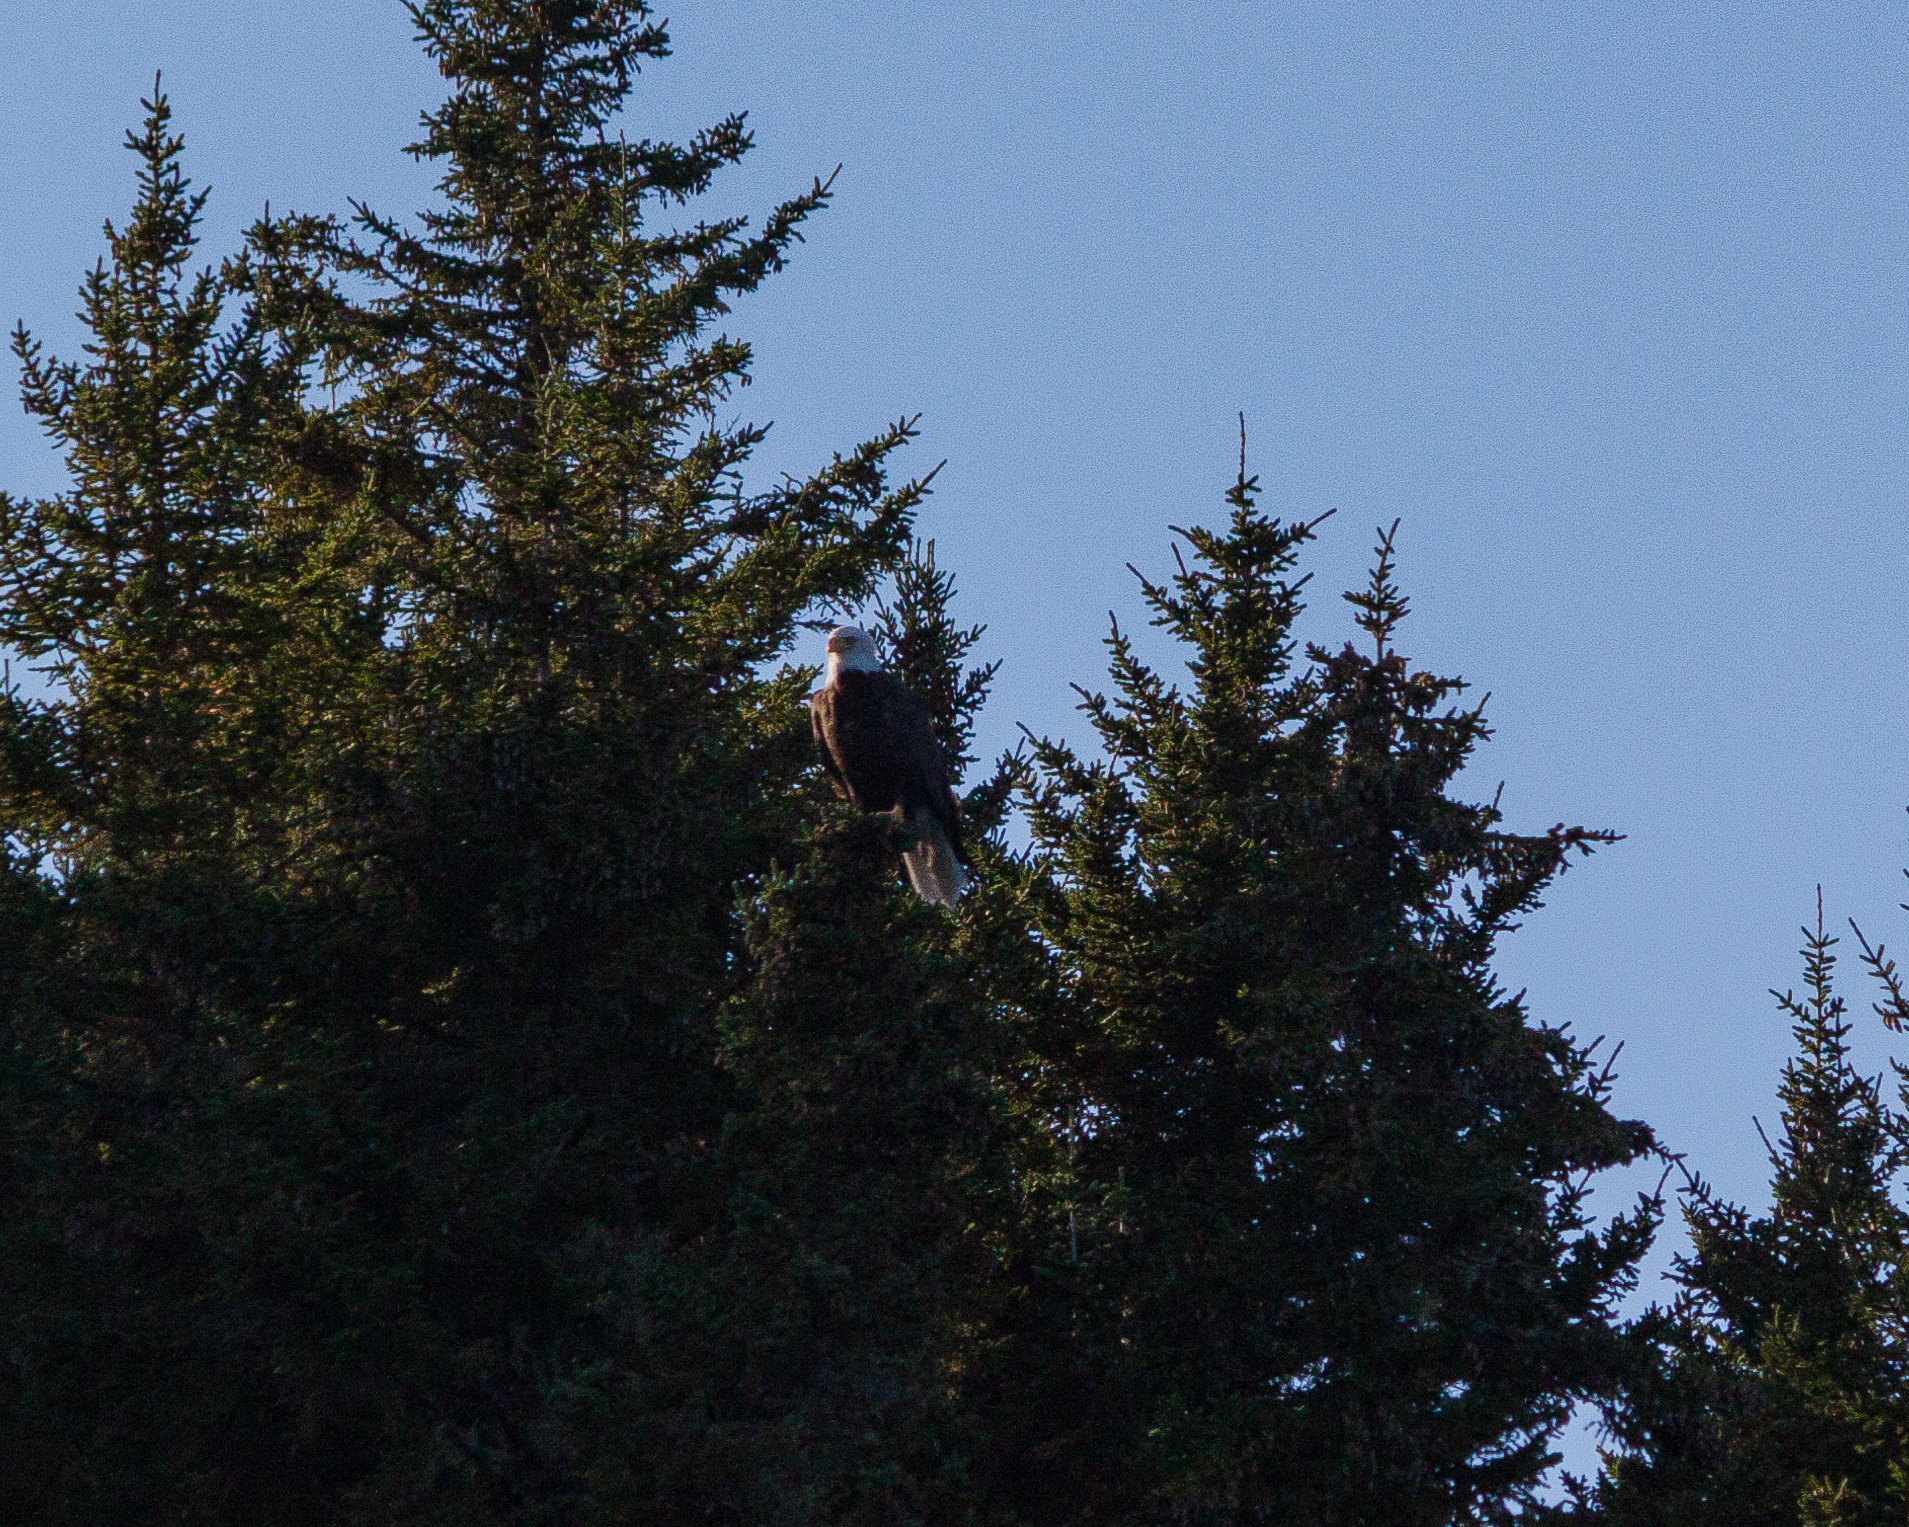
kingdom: Animalia
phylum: Chordata
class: Aves
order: Accipitriformes
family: Accipitridae
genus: Haliaeetus
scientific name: Haliaeetus leucocephalus
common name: Bald eagle
